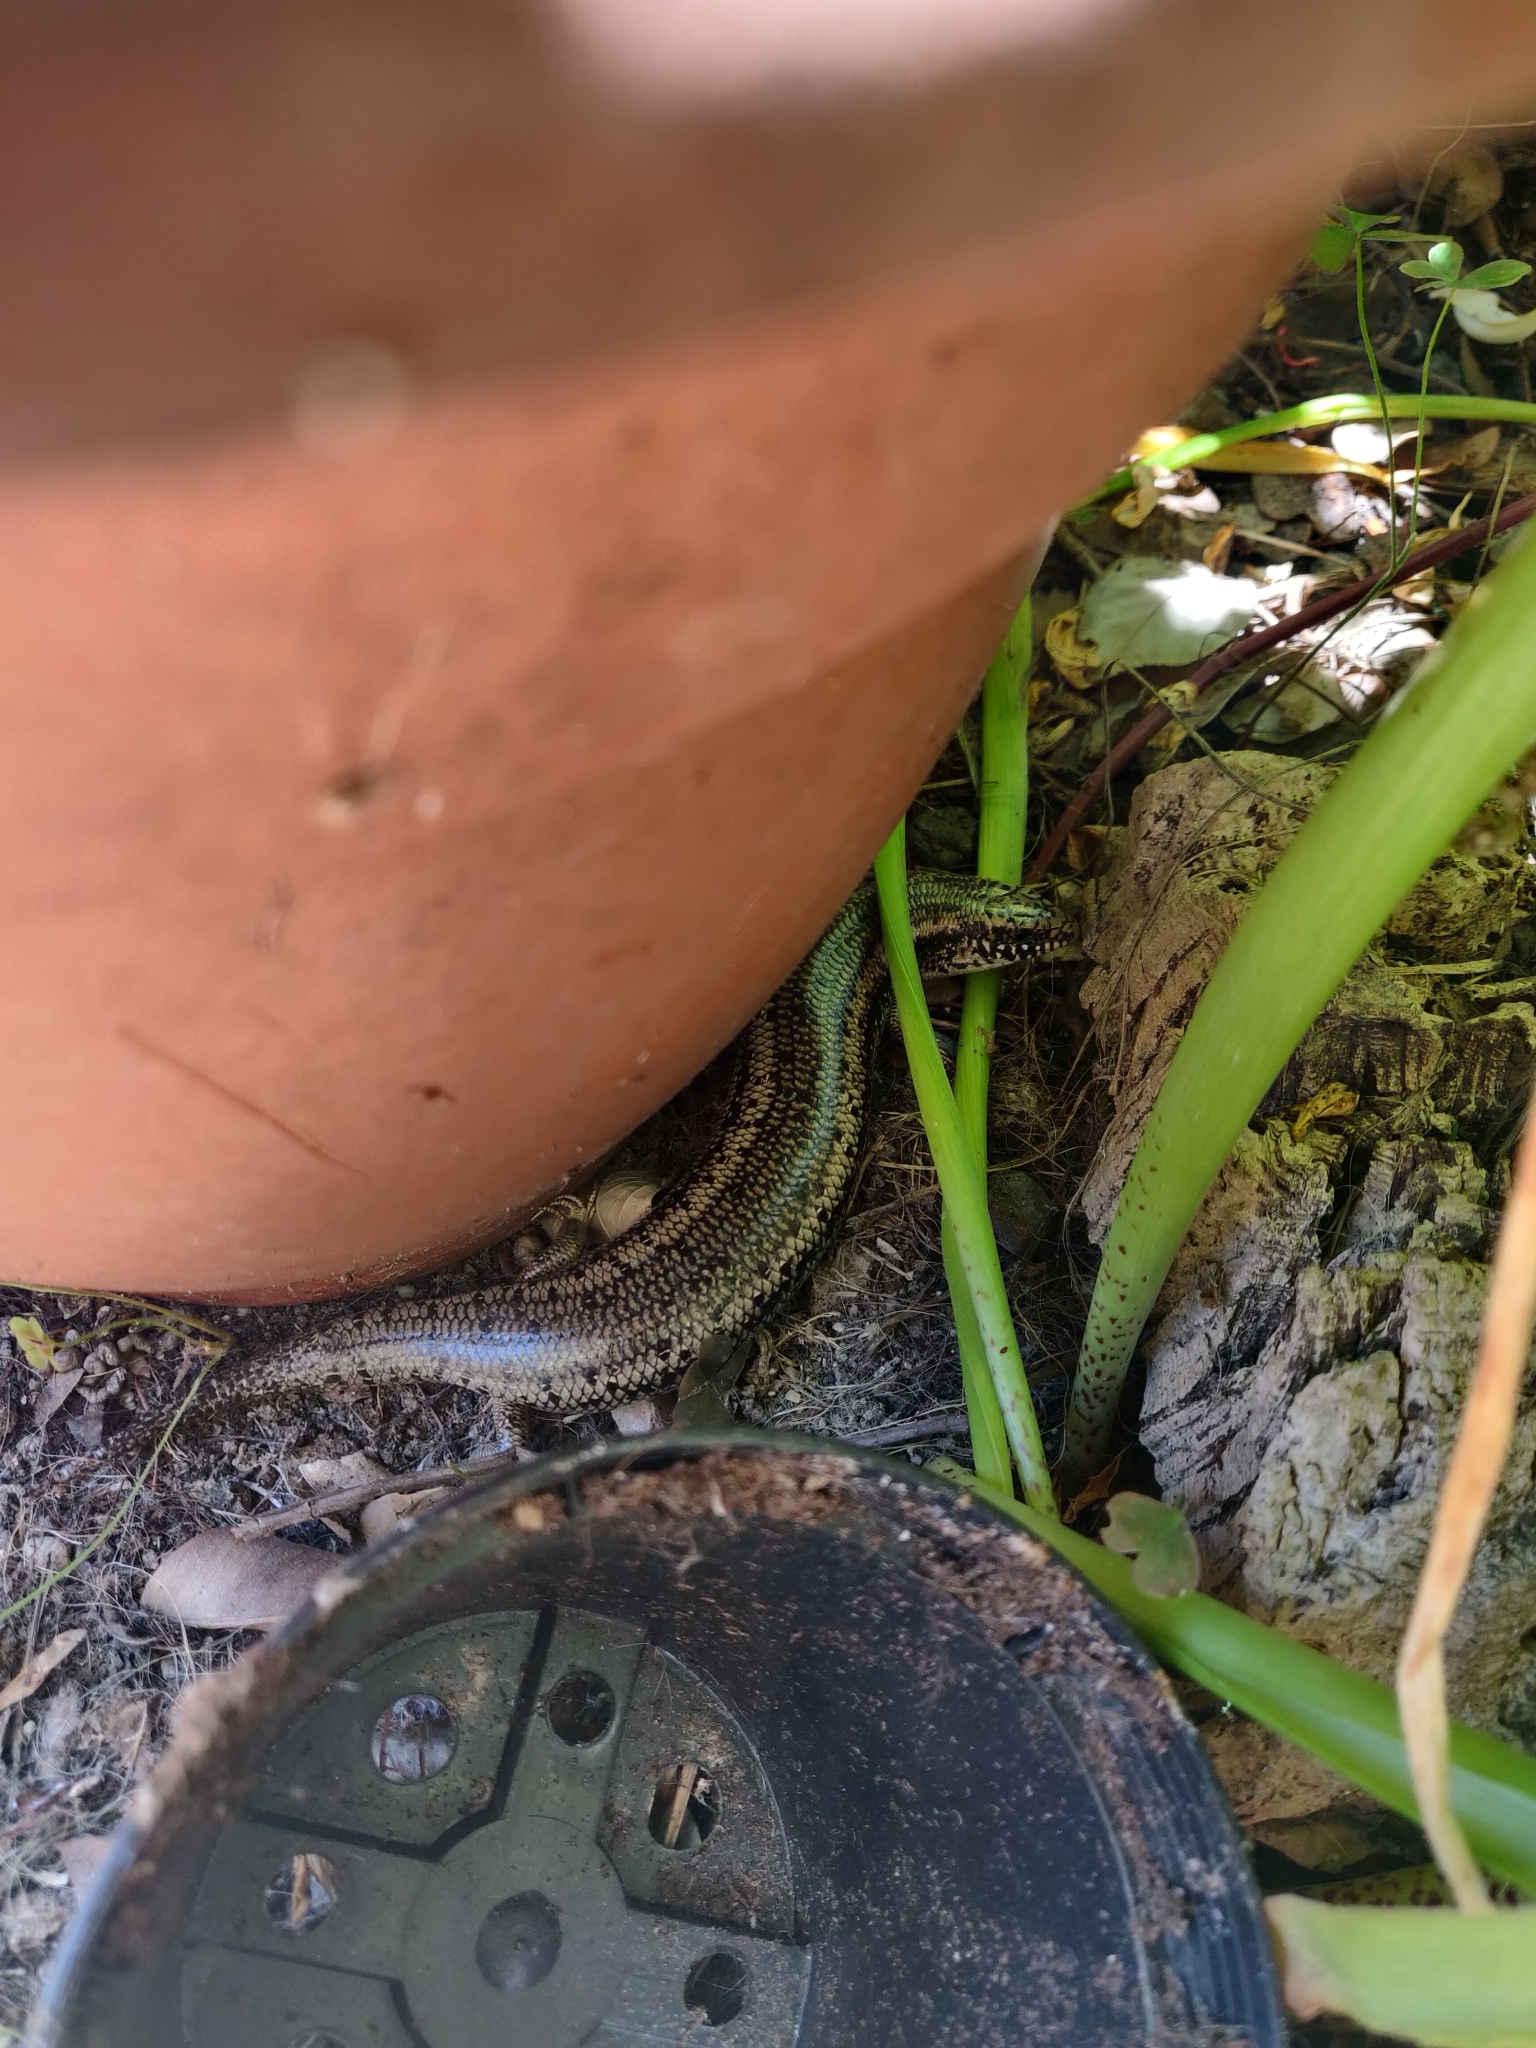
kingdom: Animalia
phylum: Chordata
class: Squamata
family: Scincidae
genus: Chalcides
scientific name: Chalcides ocellatus
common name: Ocellated skink
